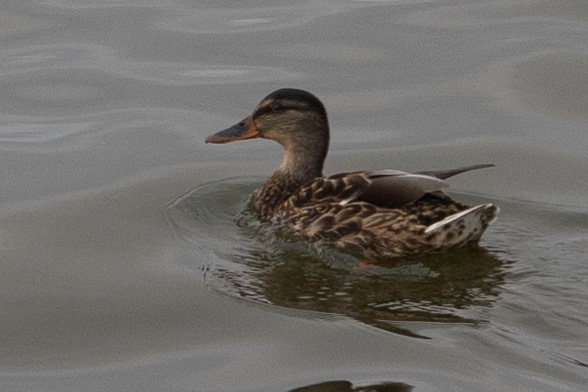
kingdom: Animalia
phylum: Chordata
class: Aves
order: Anseriformes
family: Anatidae
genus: Anas
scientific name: Anas platyrhynchos
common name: Mallard
